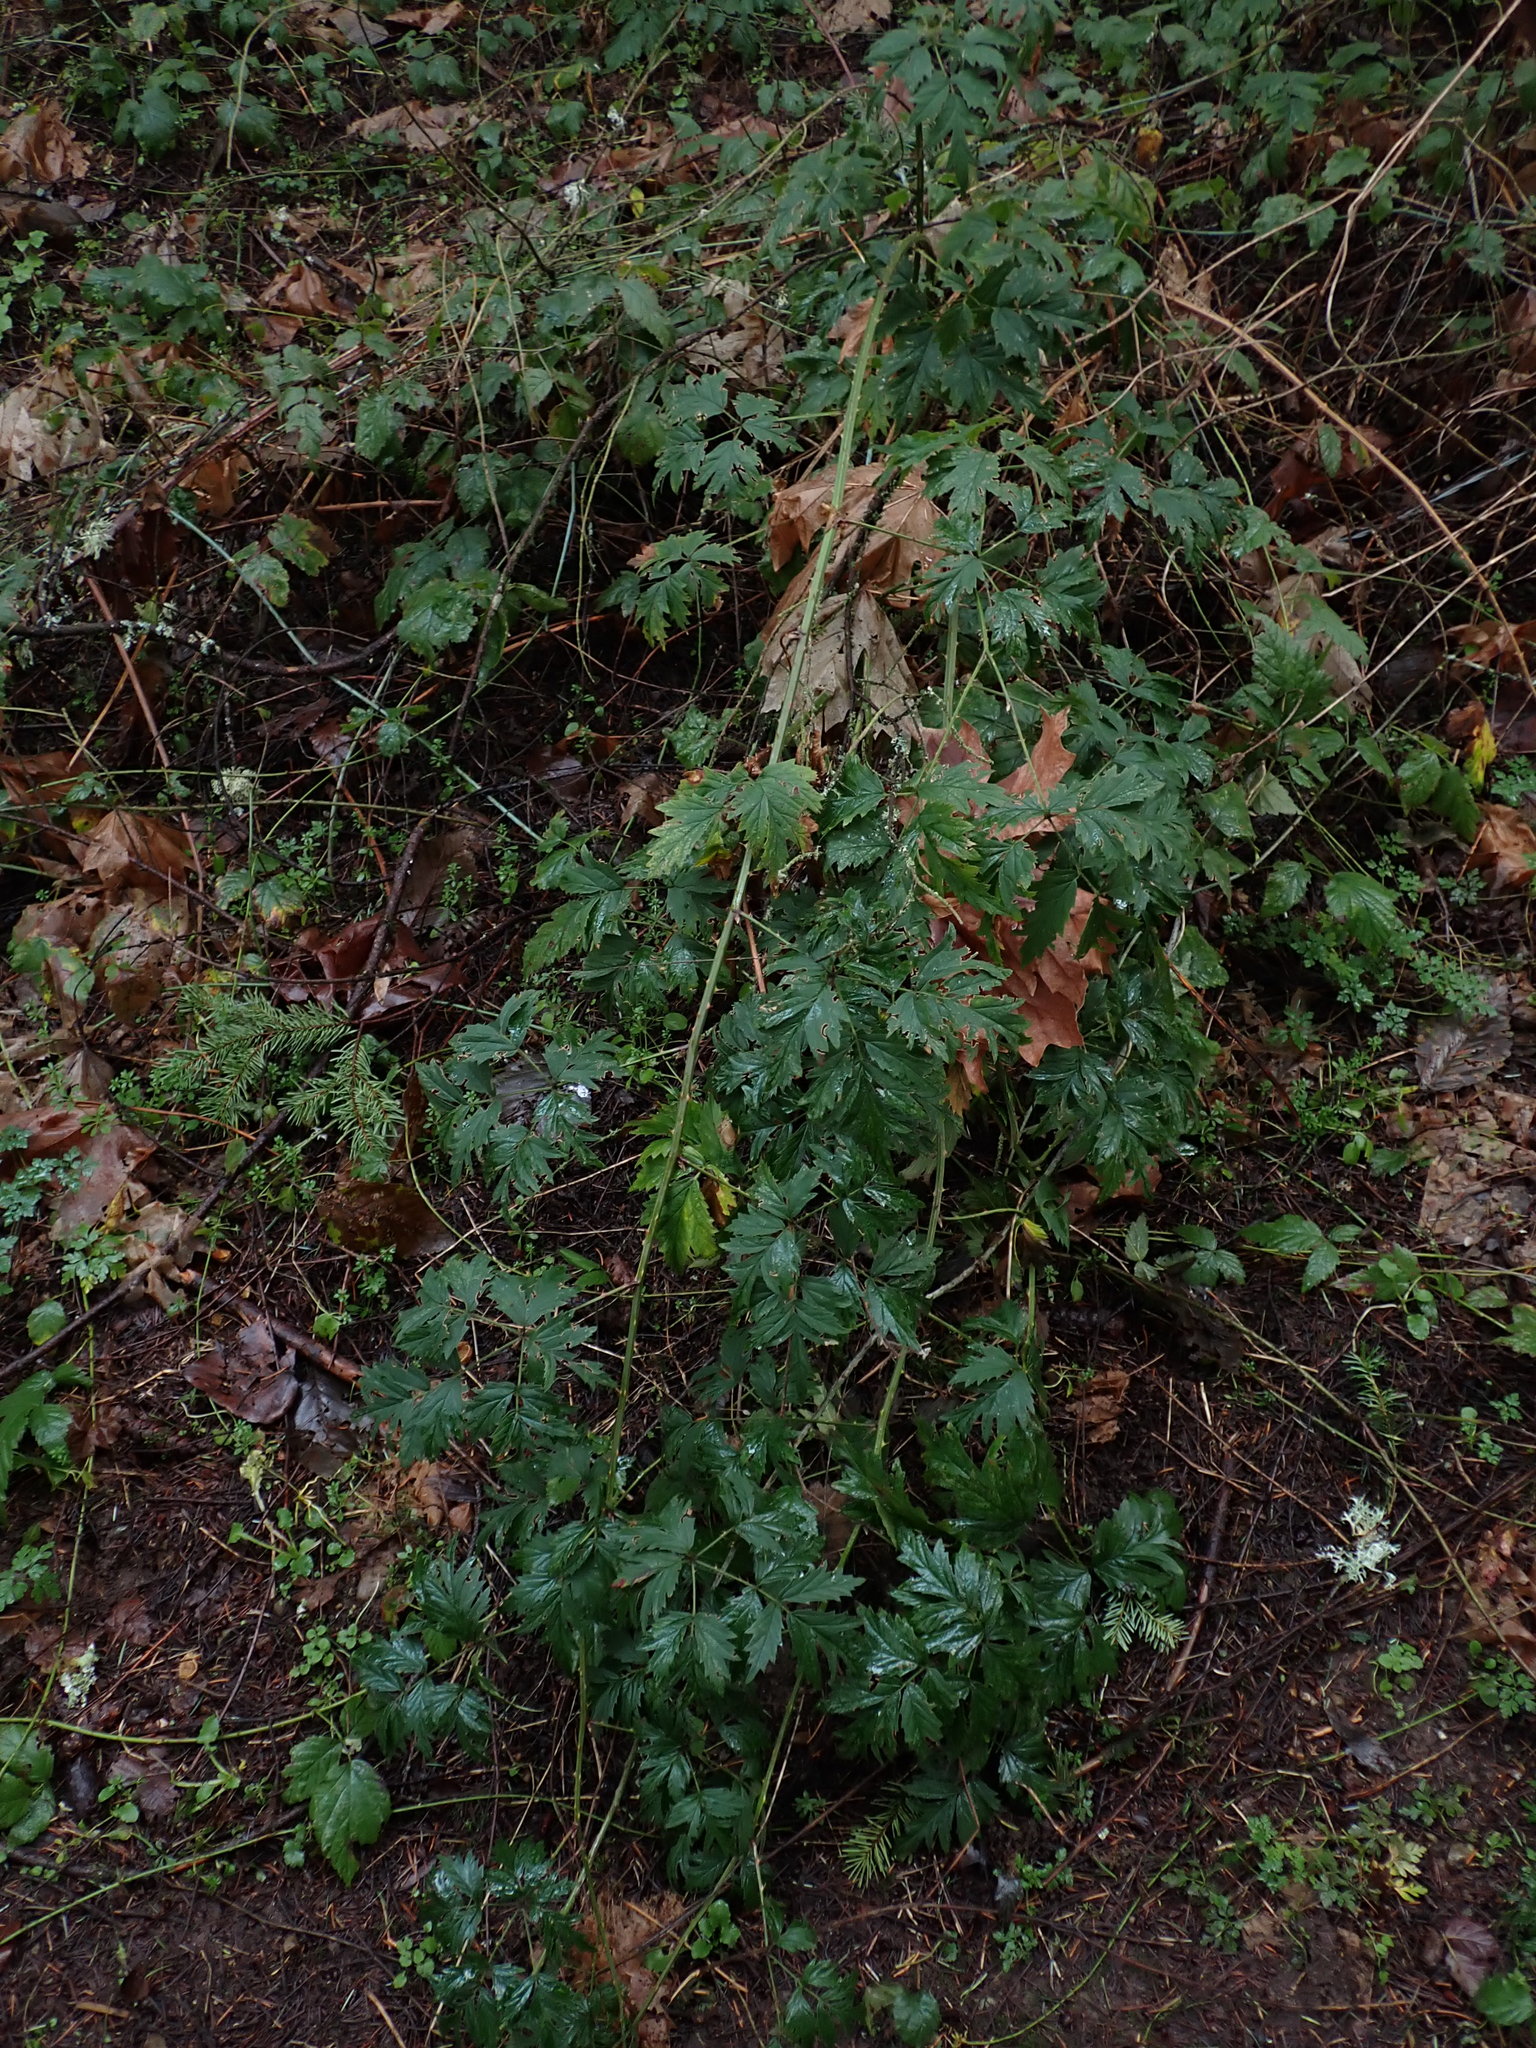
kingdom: Plantae
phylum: Tracheophyta
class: Magnoliopsida
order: Rosales
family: Rosaceae
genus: Rubus
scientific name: Rubus laciniatus
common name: Evergreen blackberry
